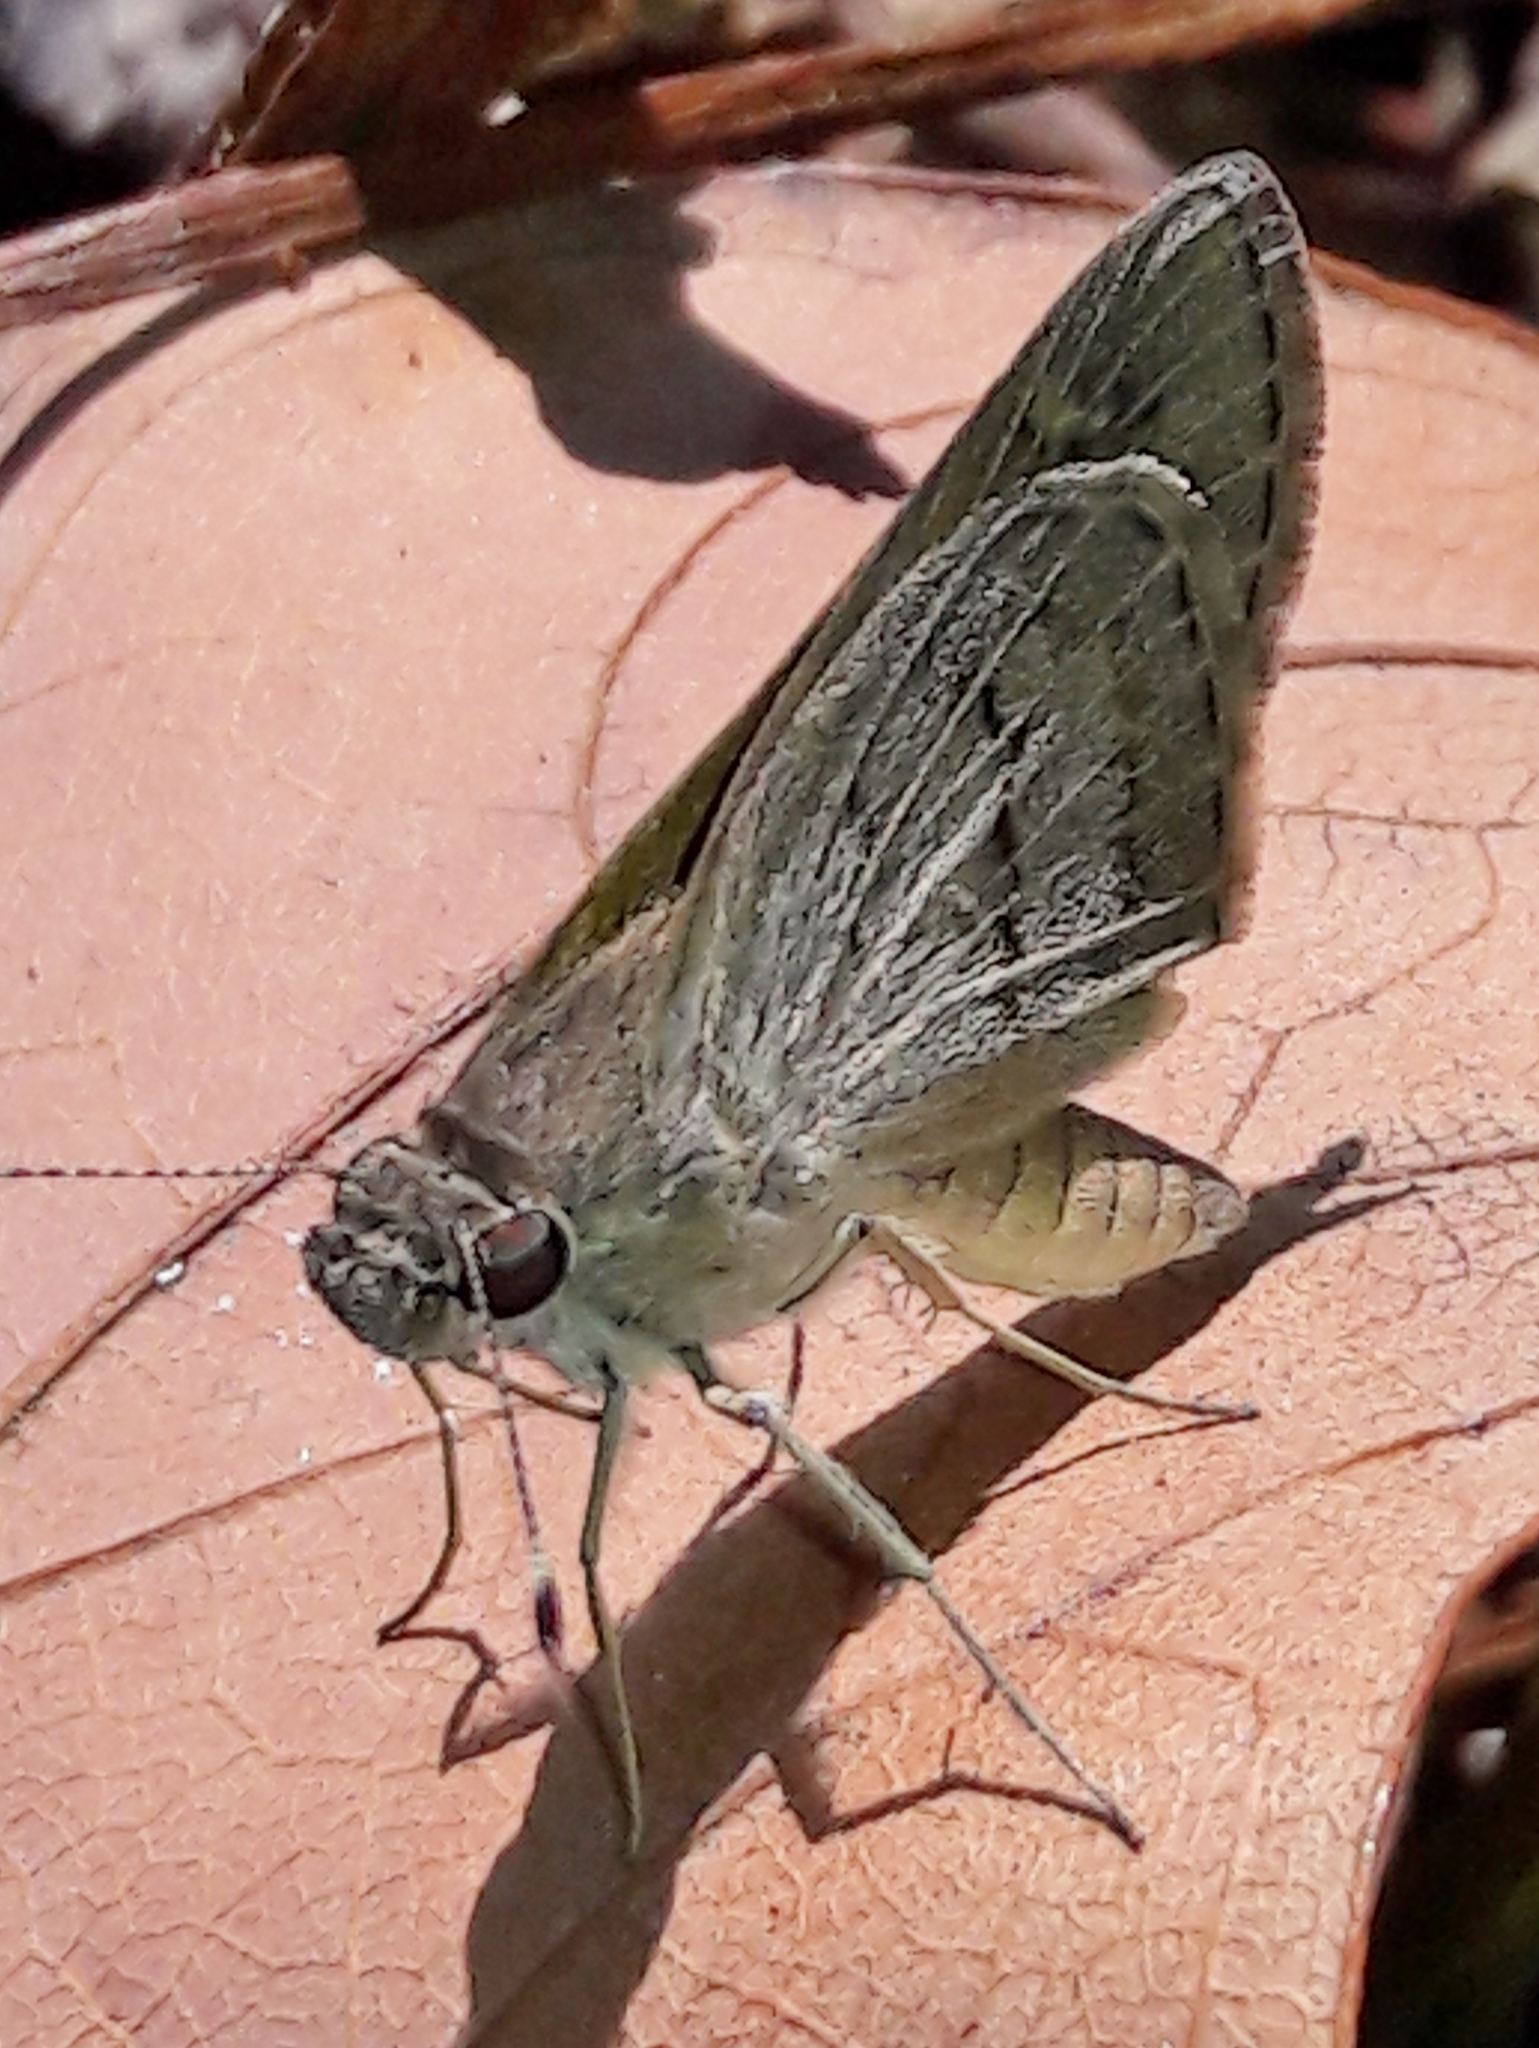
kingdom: Animalia
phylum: Arthropoda
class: Insecta
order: Lepidoptera
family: Hesperiidae
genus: Cymaenes
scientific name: Cymaenes gisca
